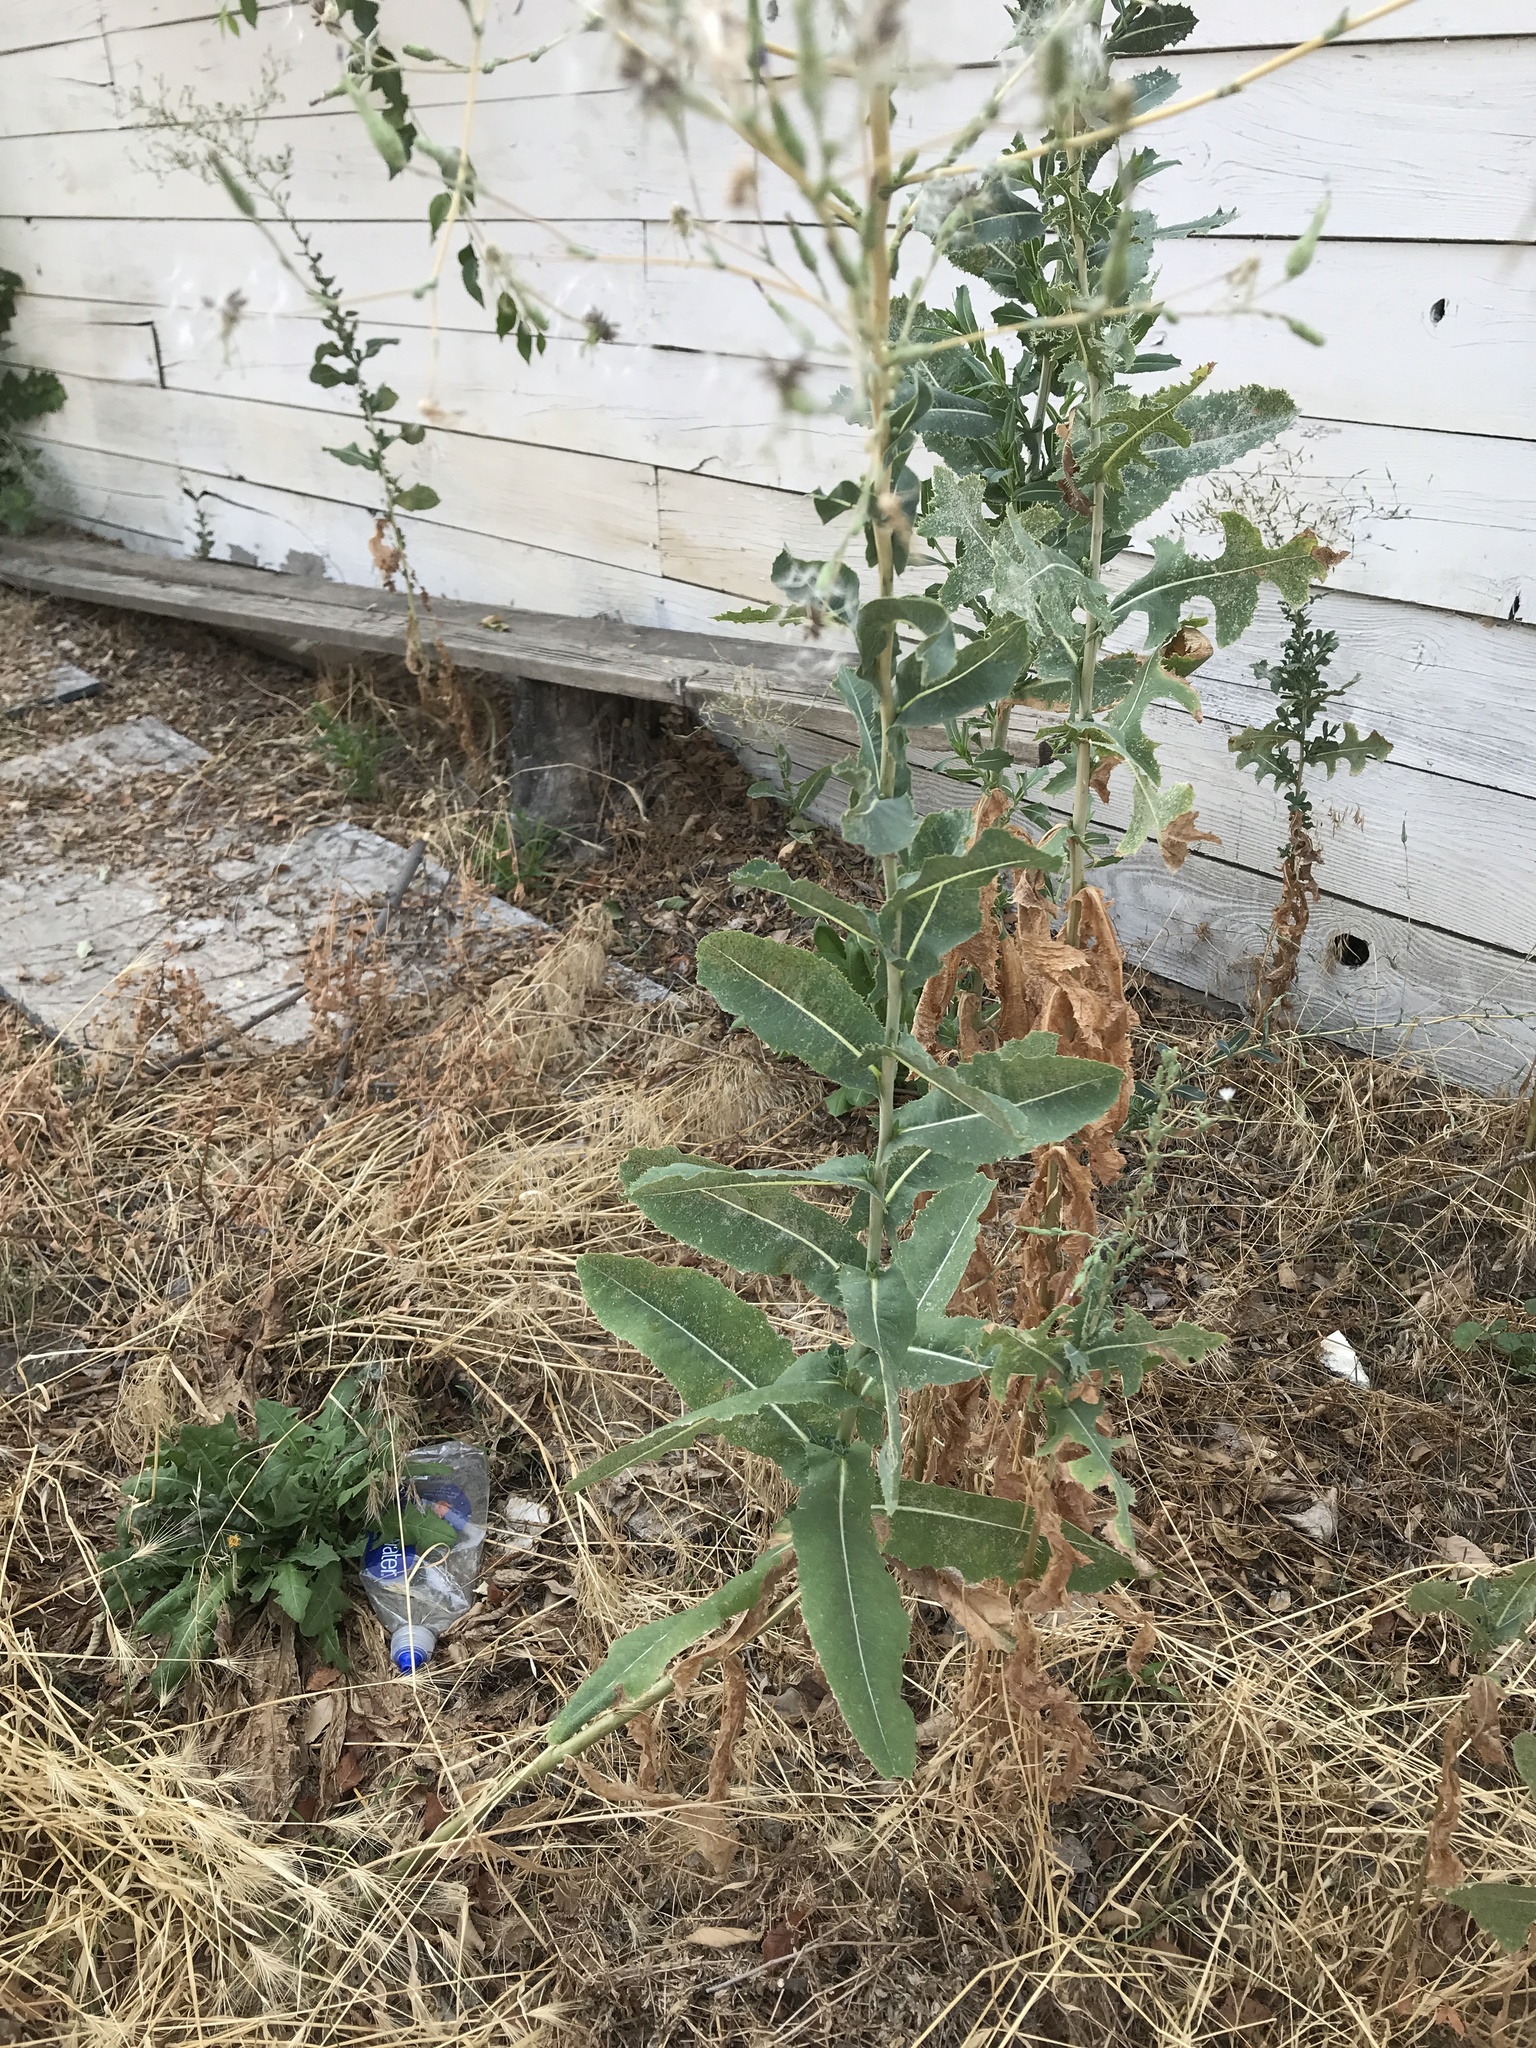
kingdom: Plantae
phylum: Tracheophyta
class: Magnoliopsida
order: Asterales
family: Asteraceae
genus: Lactuca
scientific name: Lactuca serriola
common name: Prickly lettuce
